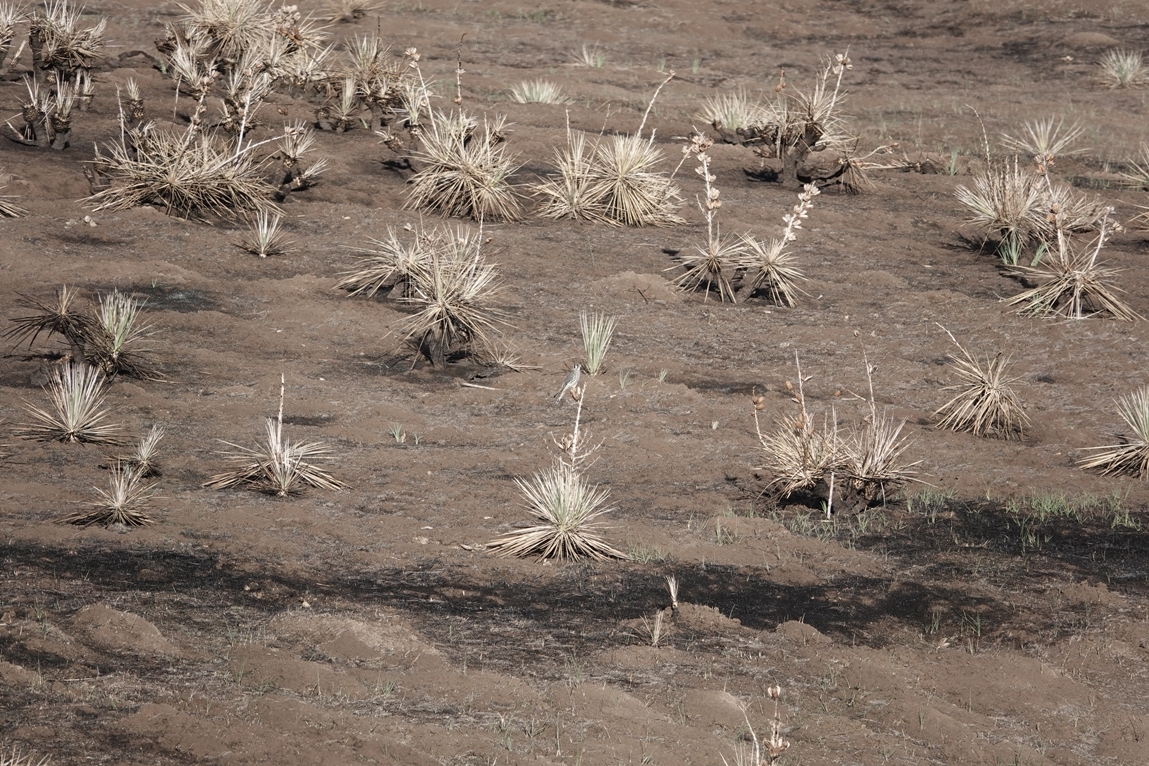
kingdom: Animalia
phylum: Chordata
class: Aves
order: Falconiformes
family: Falconidae
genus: Falco
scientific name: Falco sparverius
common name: American kestrel
